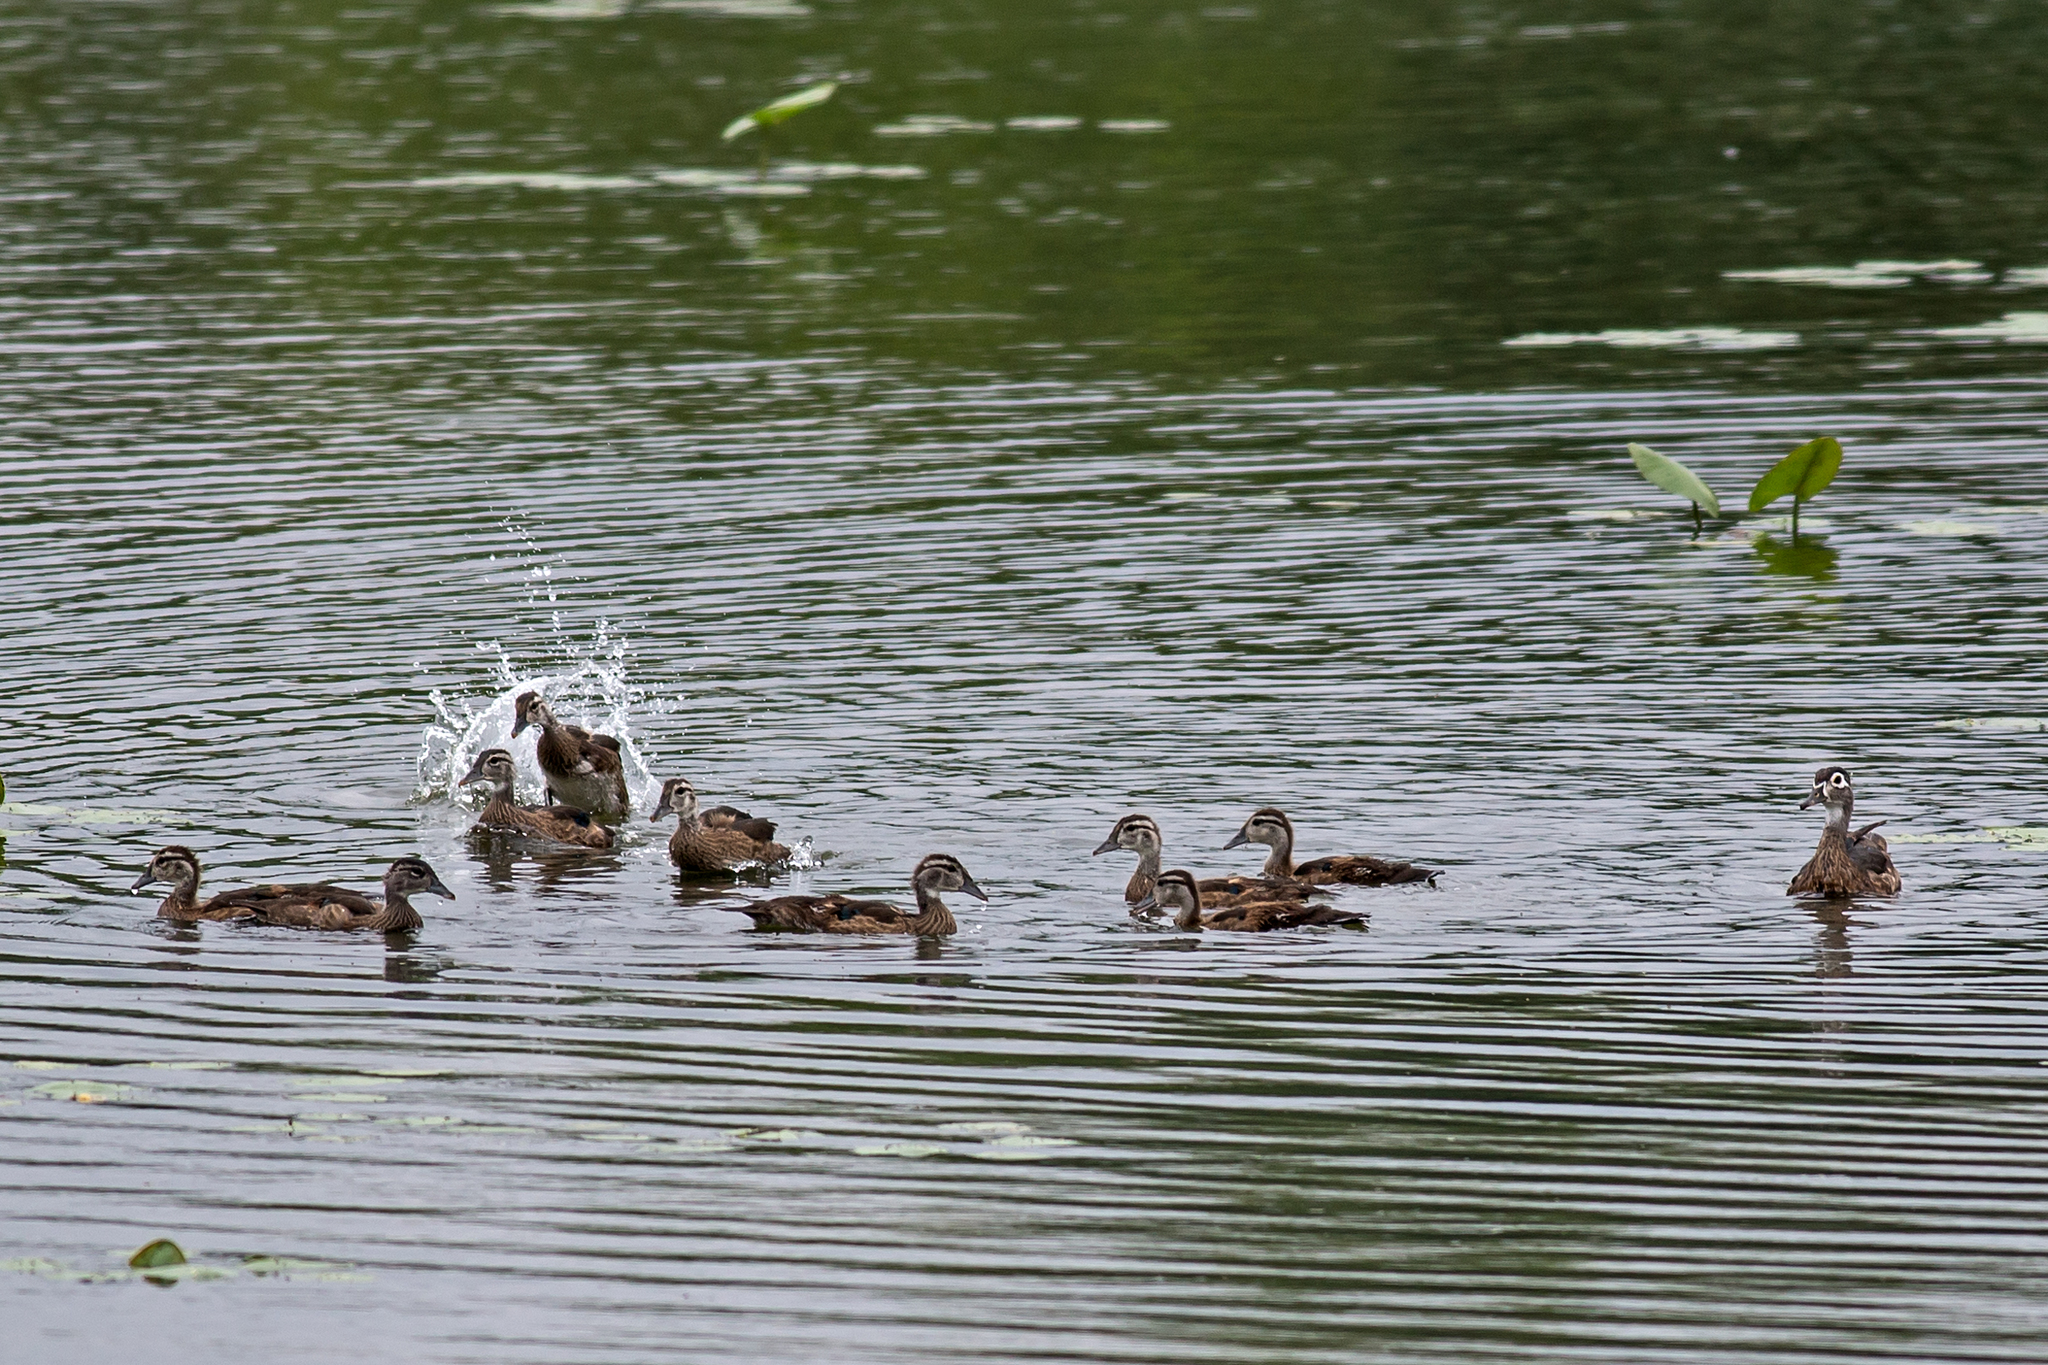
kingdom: Animalia
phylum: Chordata
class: Aves
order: Anseriformes
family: Anatidae
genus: Aix
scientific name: Aix sponsa
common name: Wood duck
